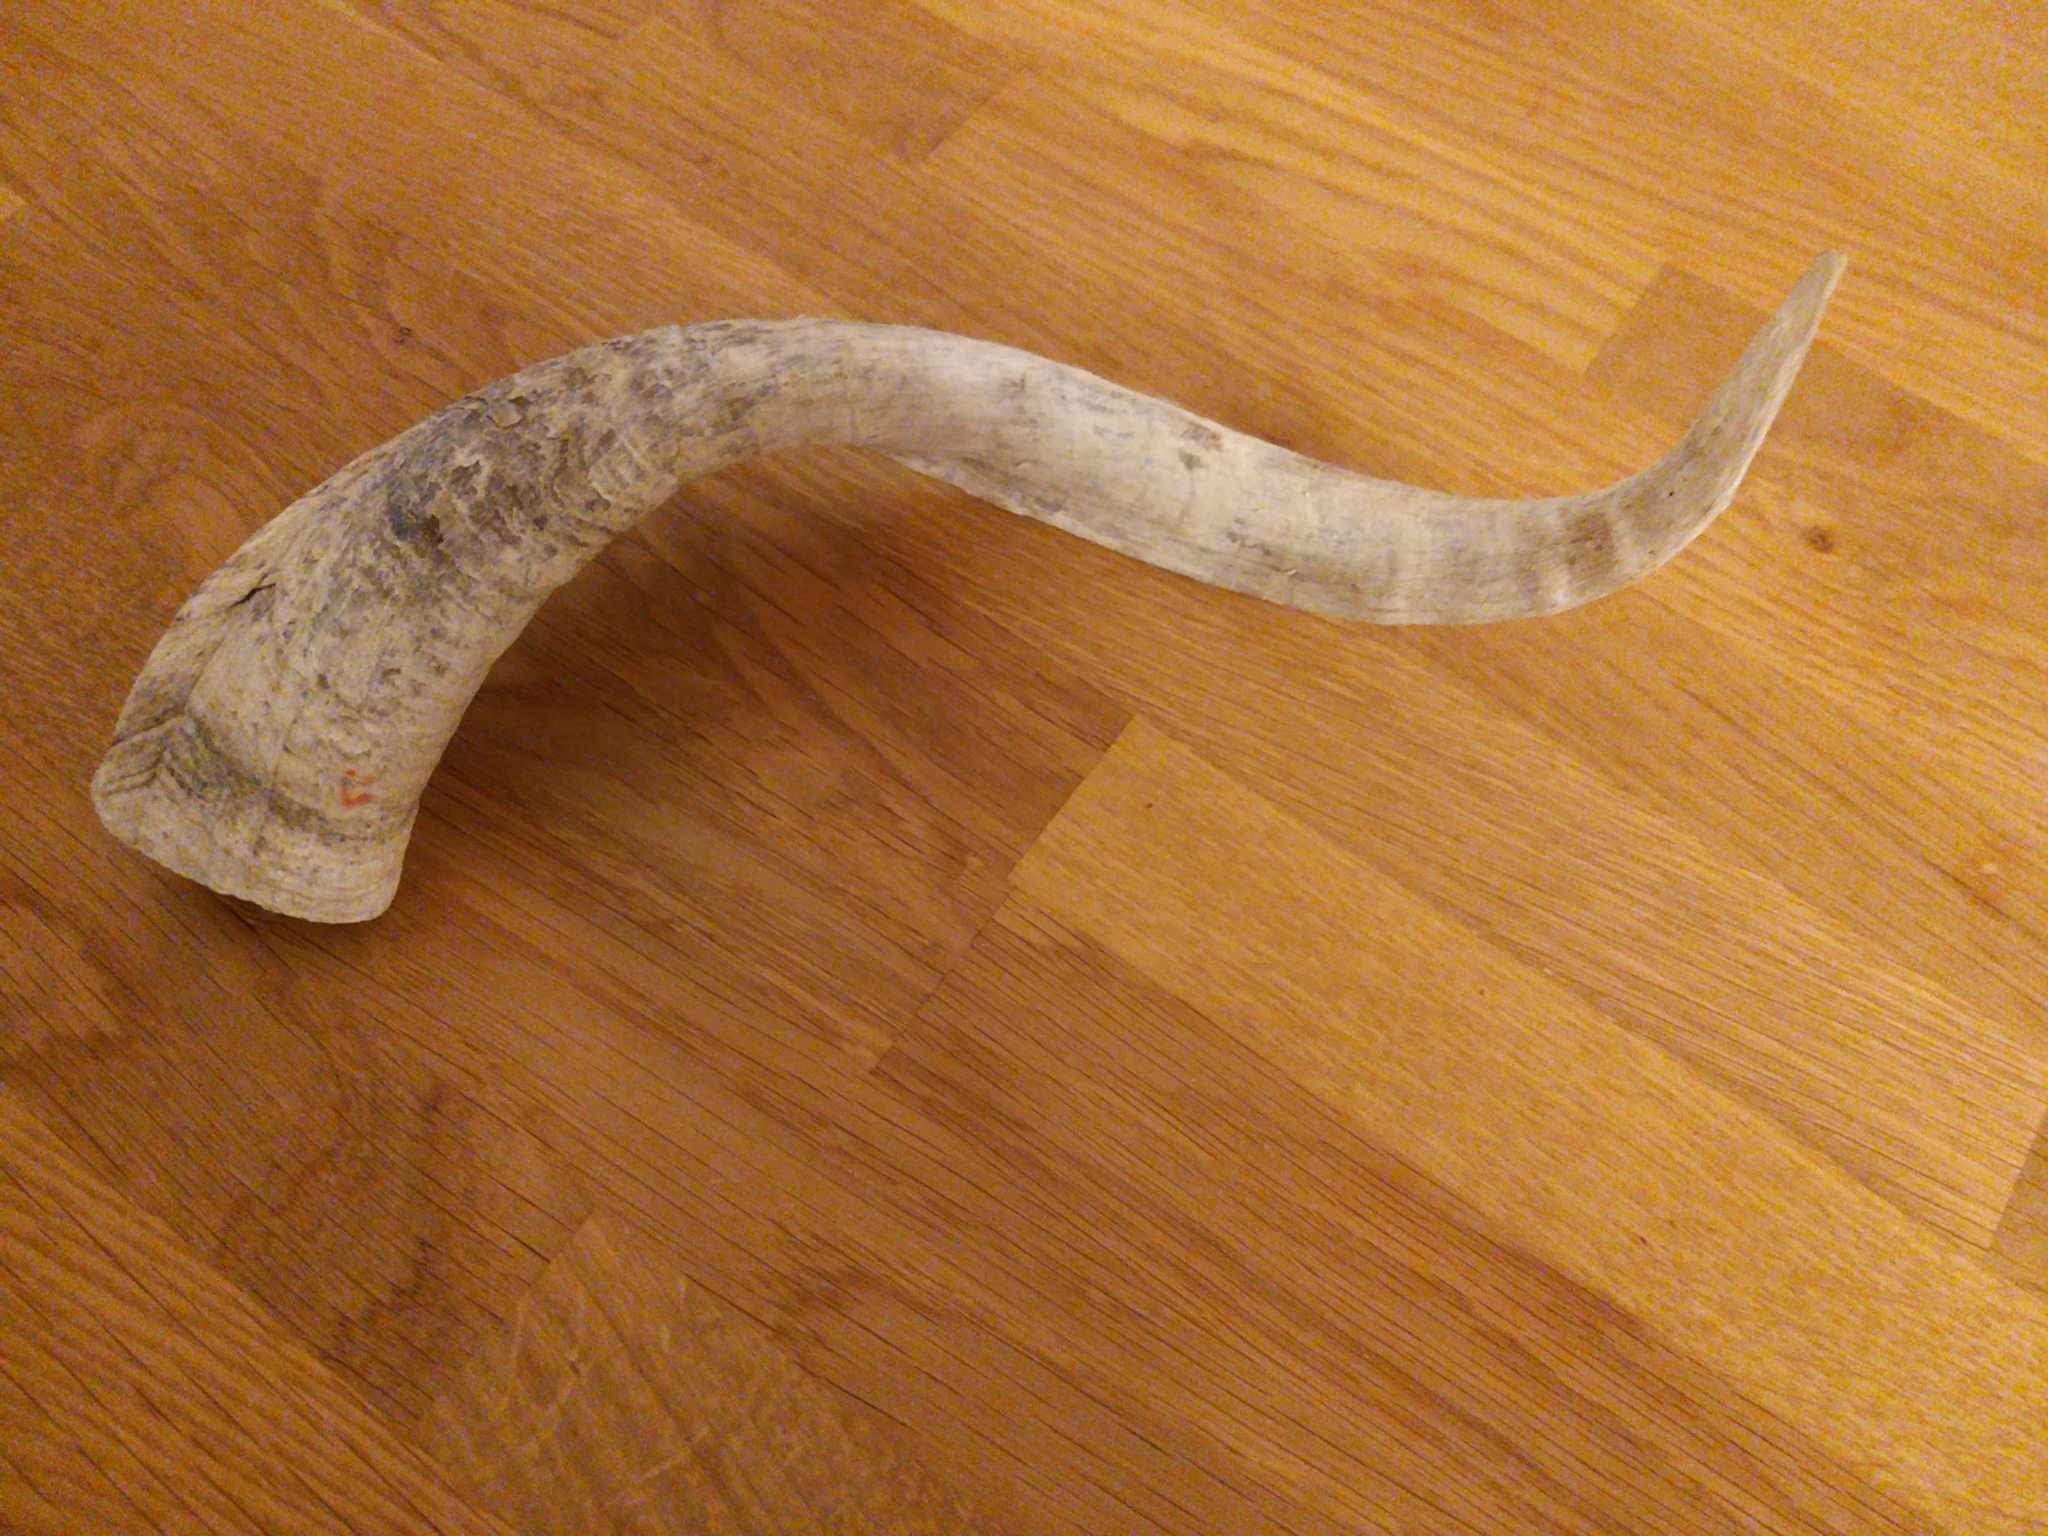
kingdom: Animalia
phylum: Chordata
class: Mammalia
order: Artiodactyla
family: Bovidae
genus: Capra
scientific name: Capra hircus
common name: Domestic goat
